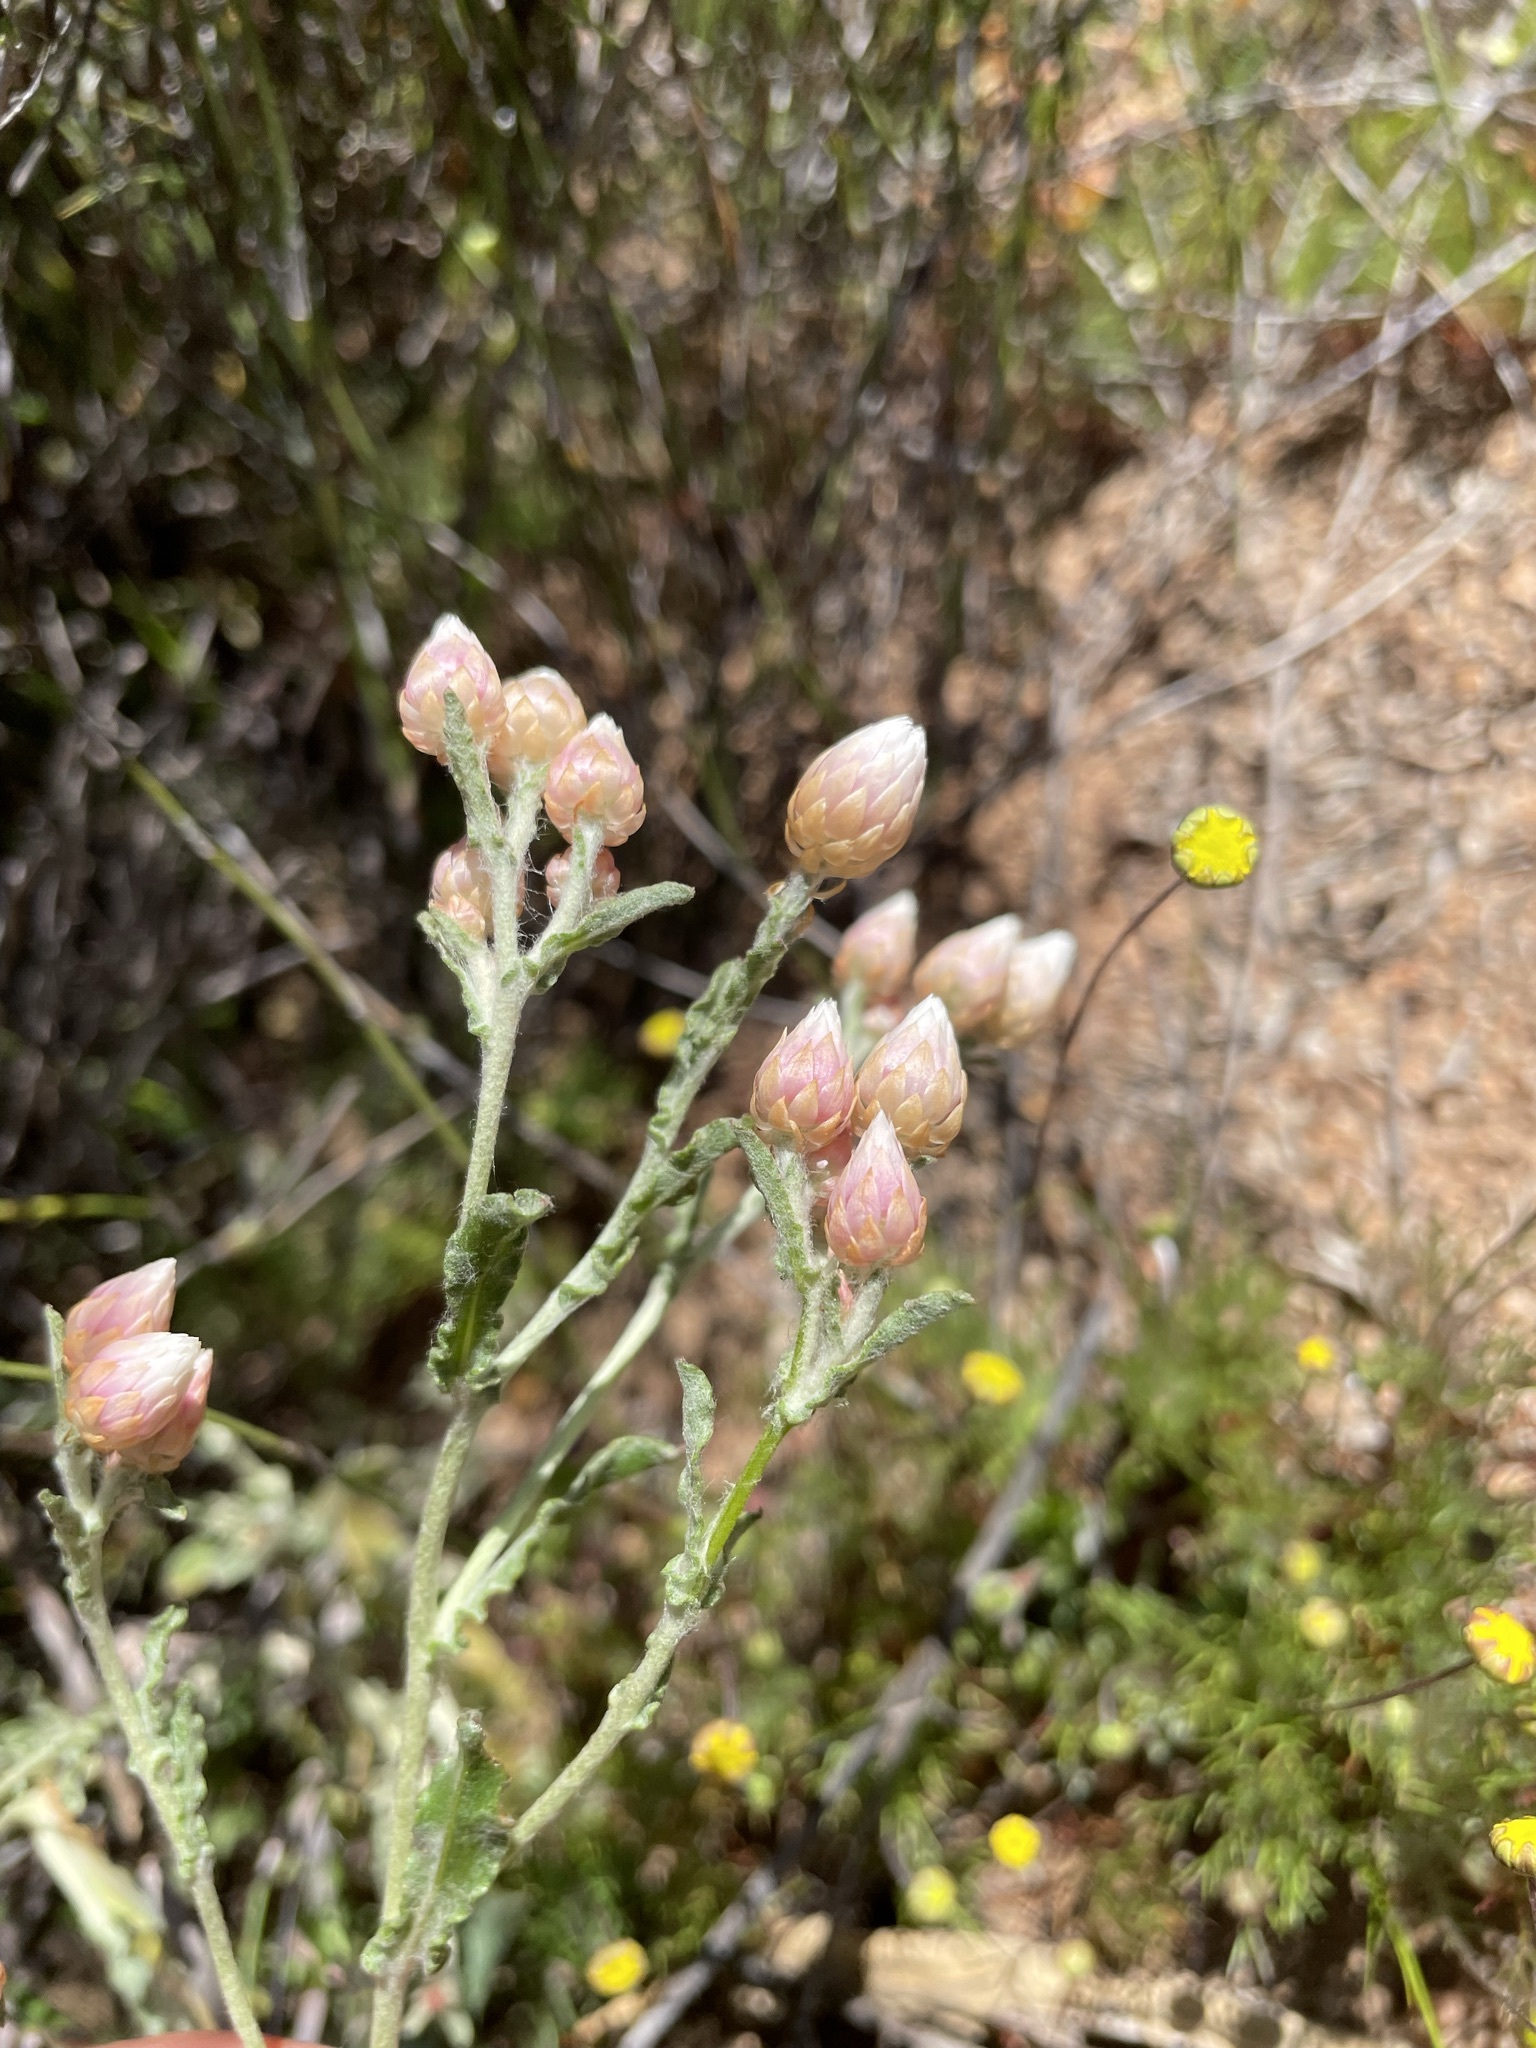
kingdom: Plantae
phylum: Tracheophyta
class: Magnoliopsida
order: Asterales
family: Asteraceae
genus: Helichrysum
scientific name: Helichrysum stellatum
